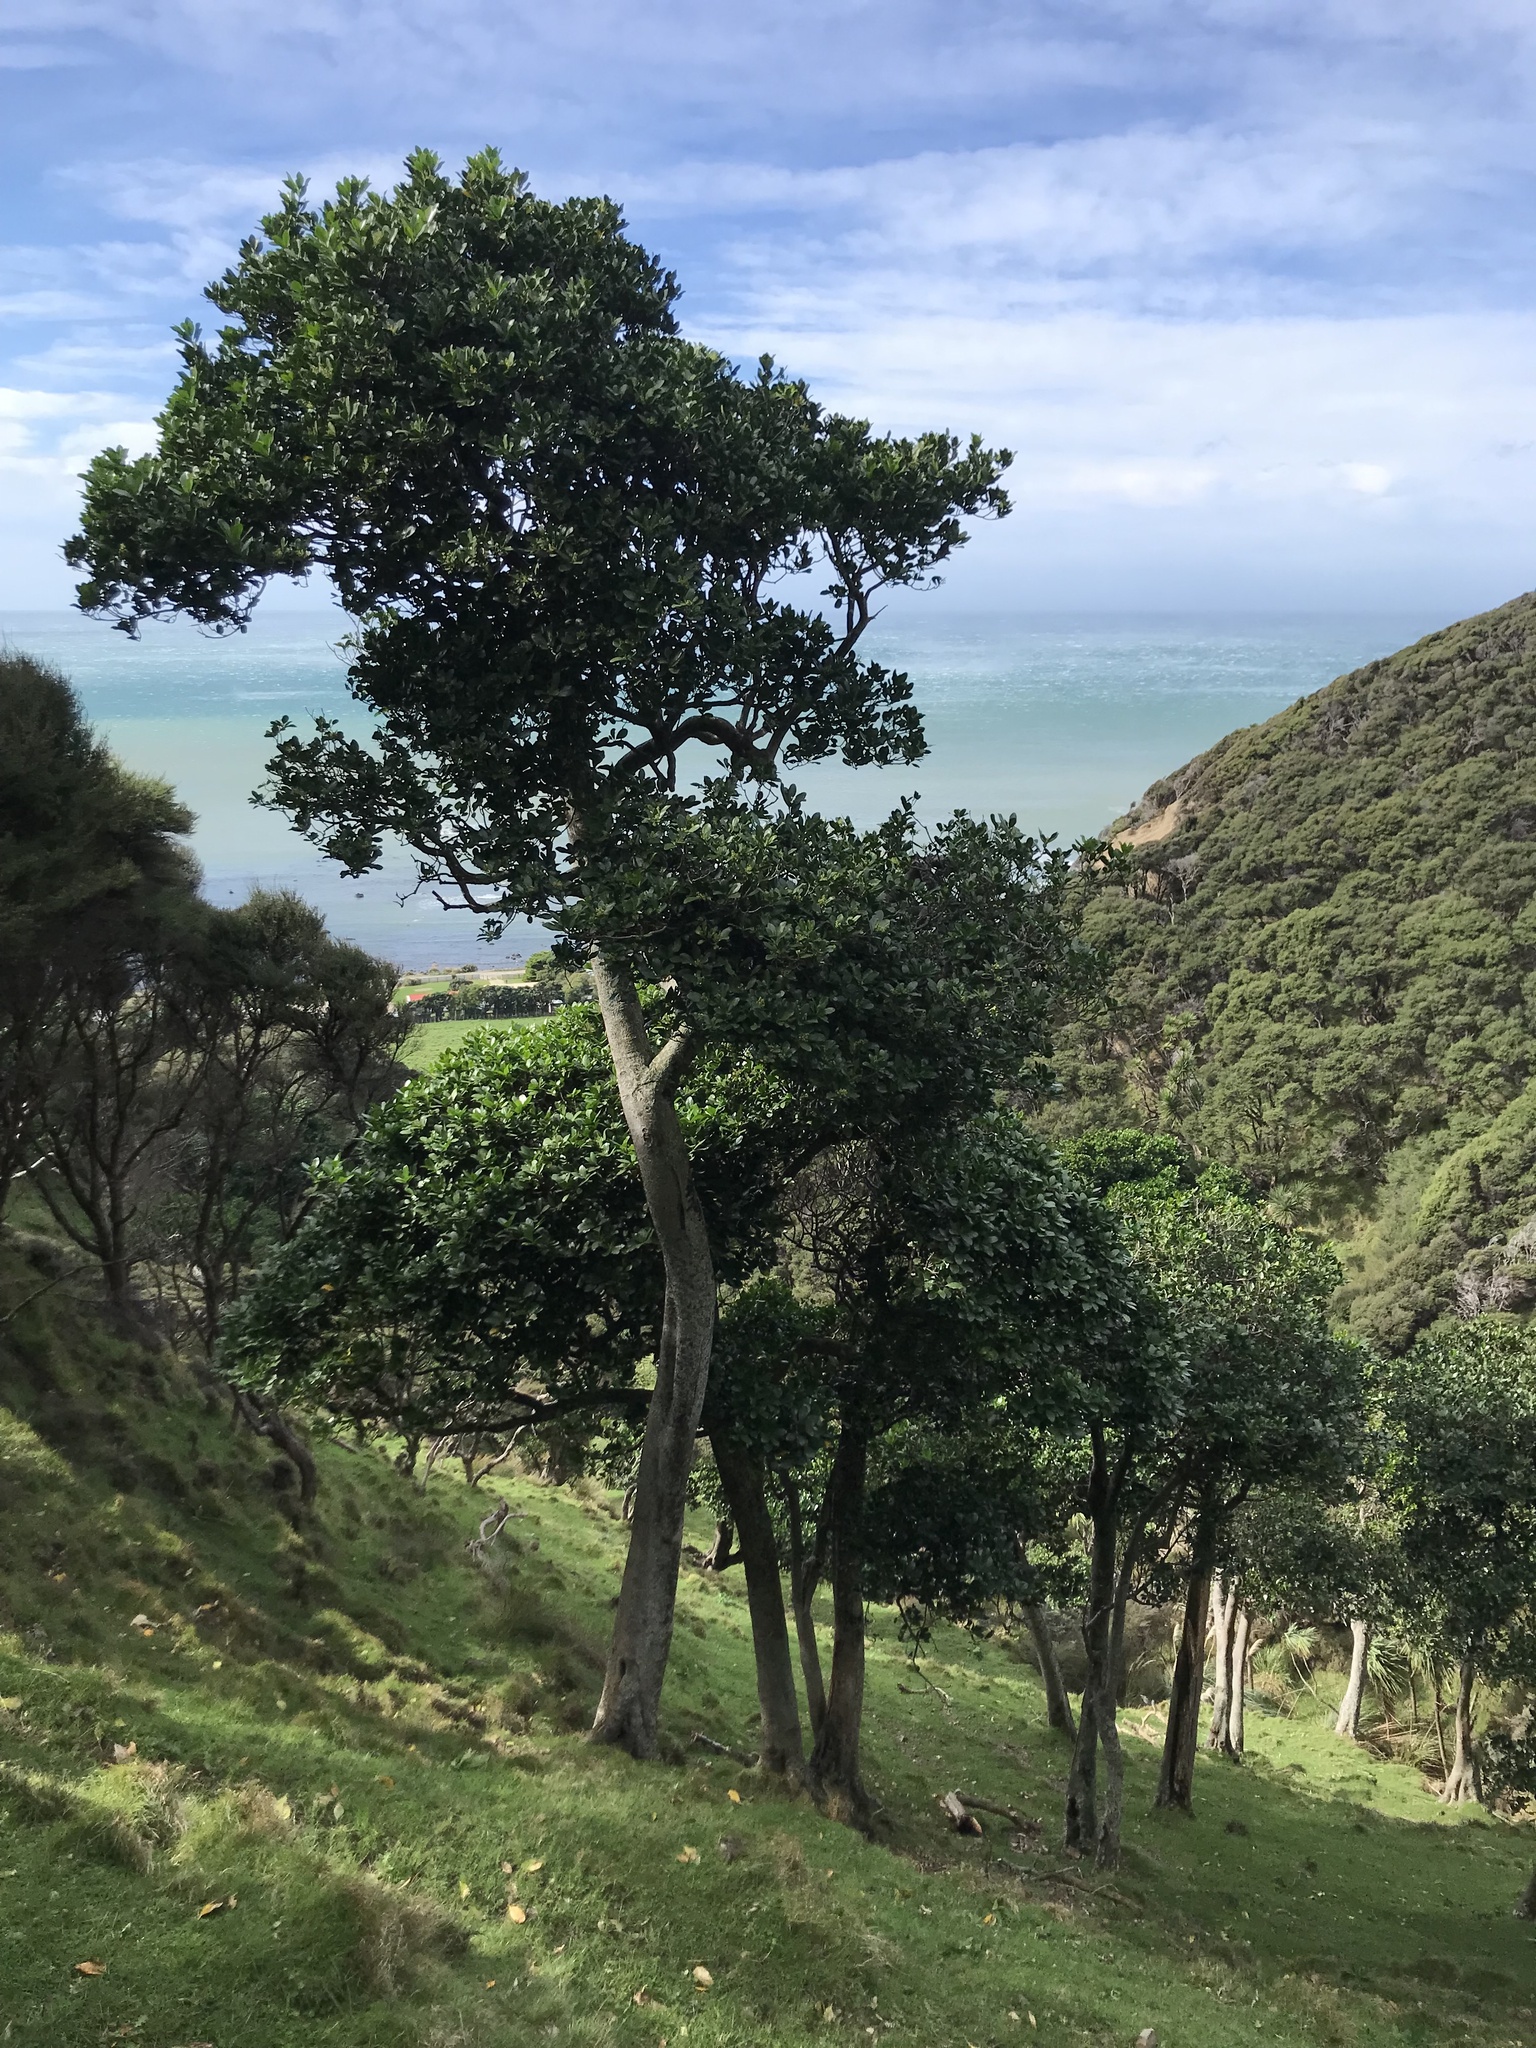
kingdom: Plantae
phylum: Tracheophyta
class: Magnoliopsida
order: Cucurbitales
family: Corynocarpaceae
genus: Corynocarpus
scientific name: Corynocarpus laevigatus
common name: New zealand laurel
